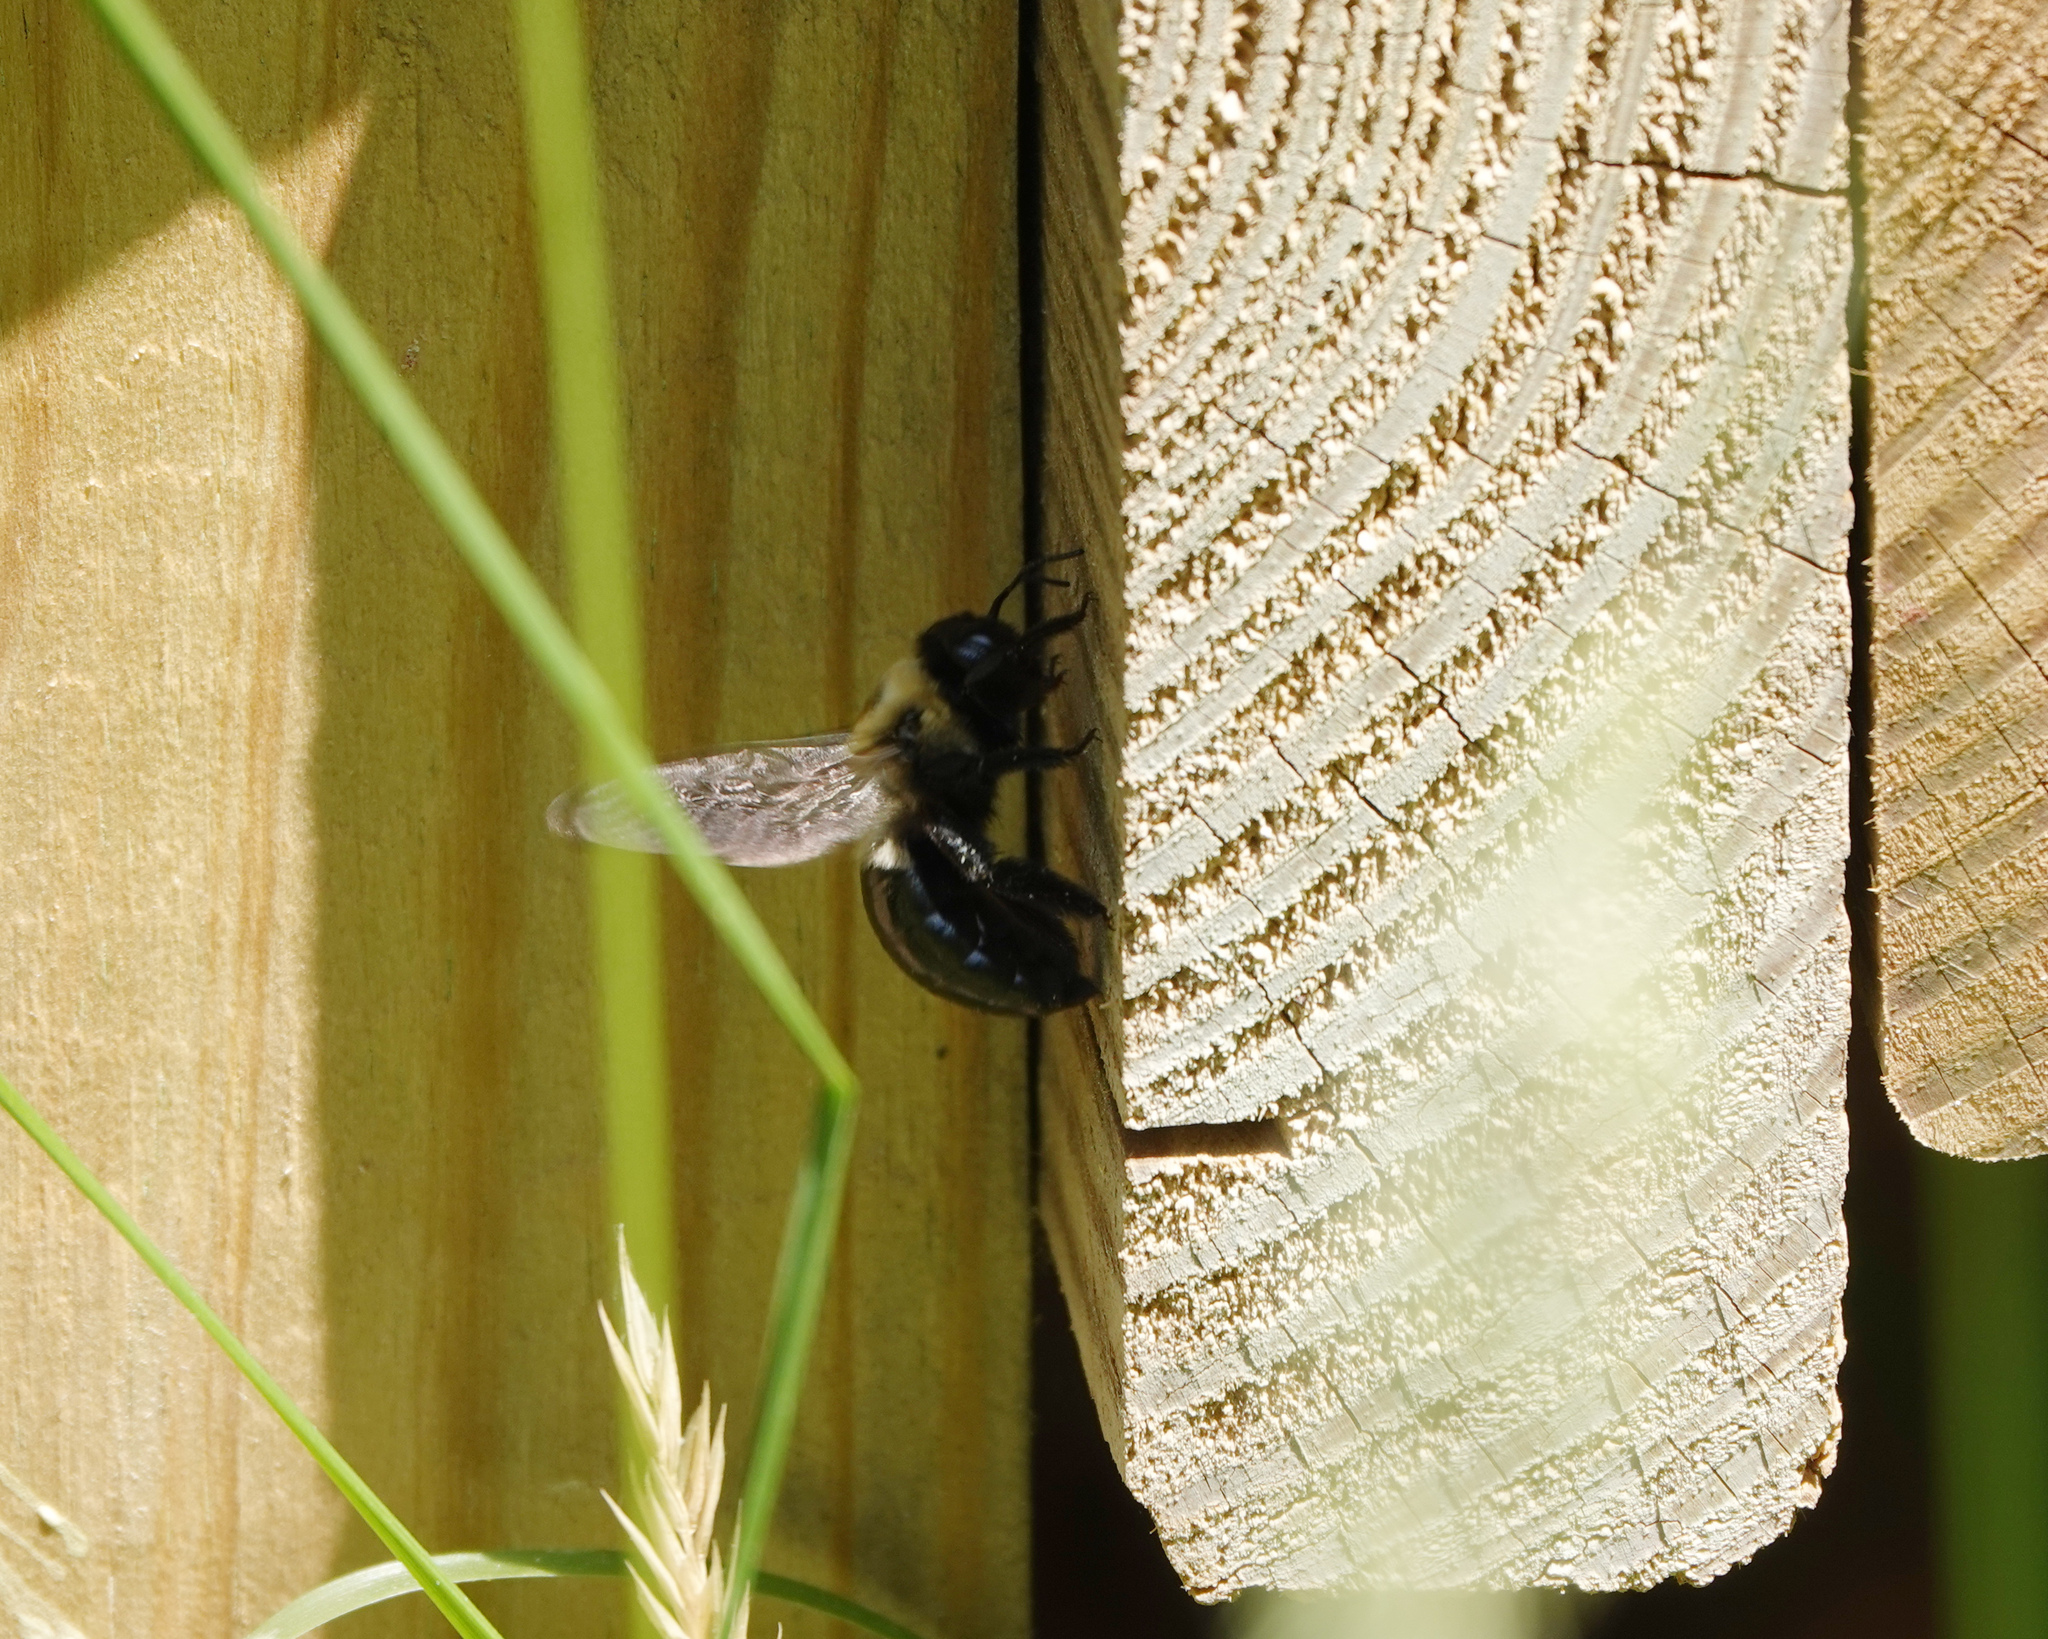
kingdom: Animalia
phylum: Arthropoda
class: Insecta
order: Hymenoptera
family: Apidae
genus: Xylocopa
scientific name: Xylocopa virginica
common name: Carpenter bee
